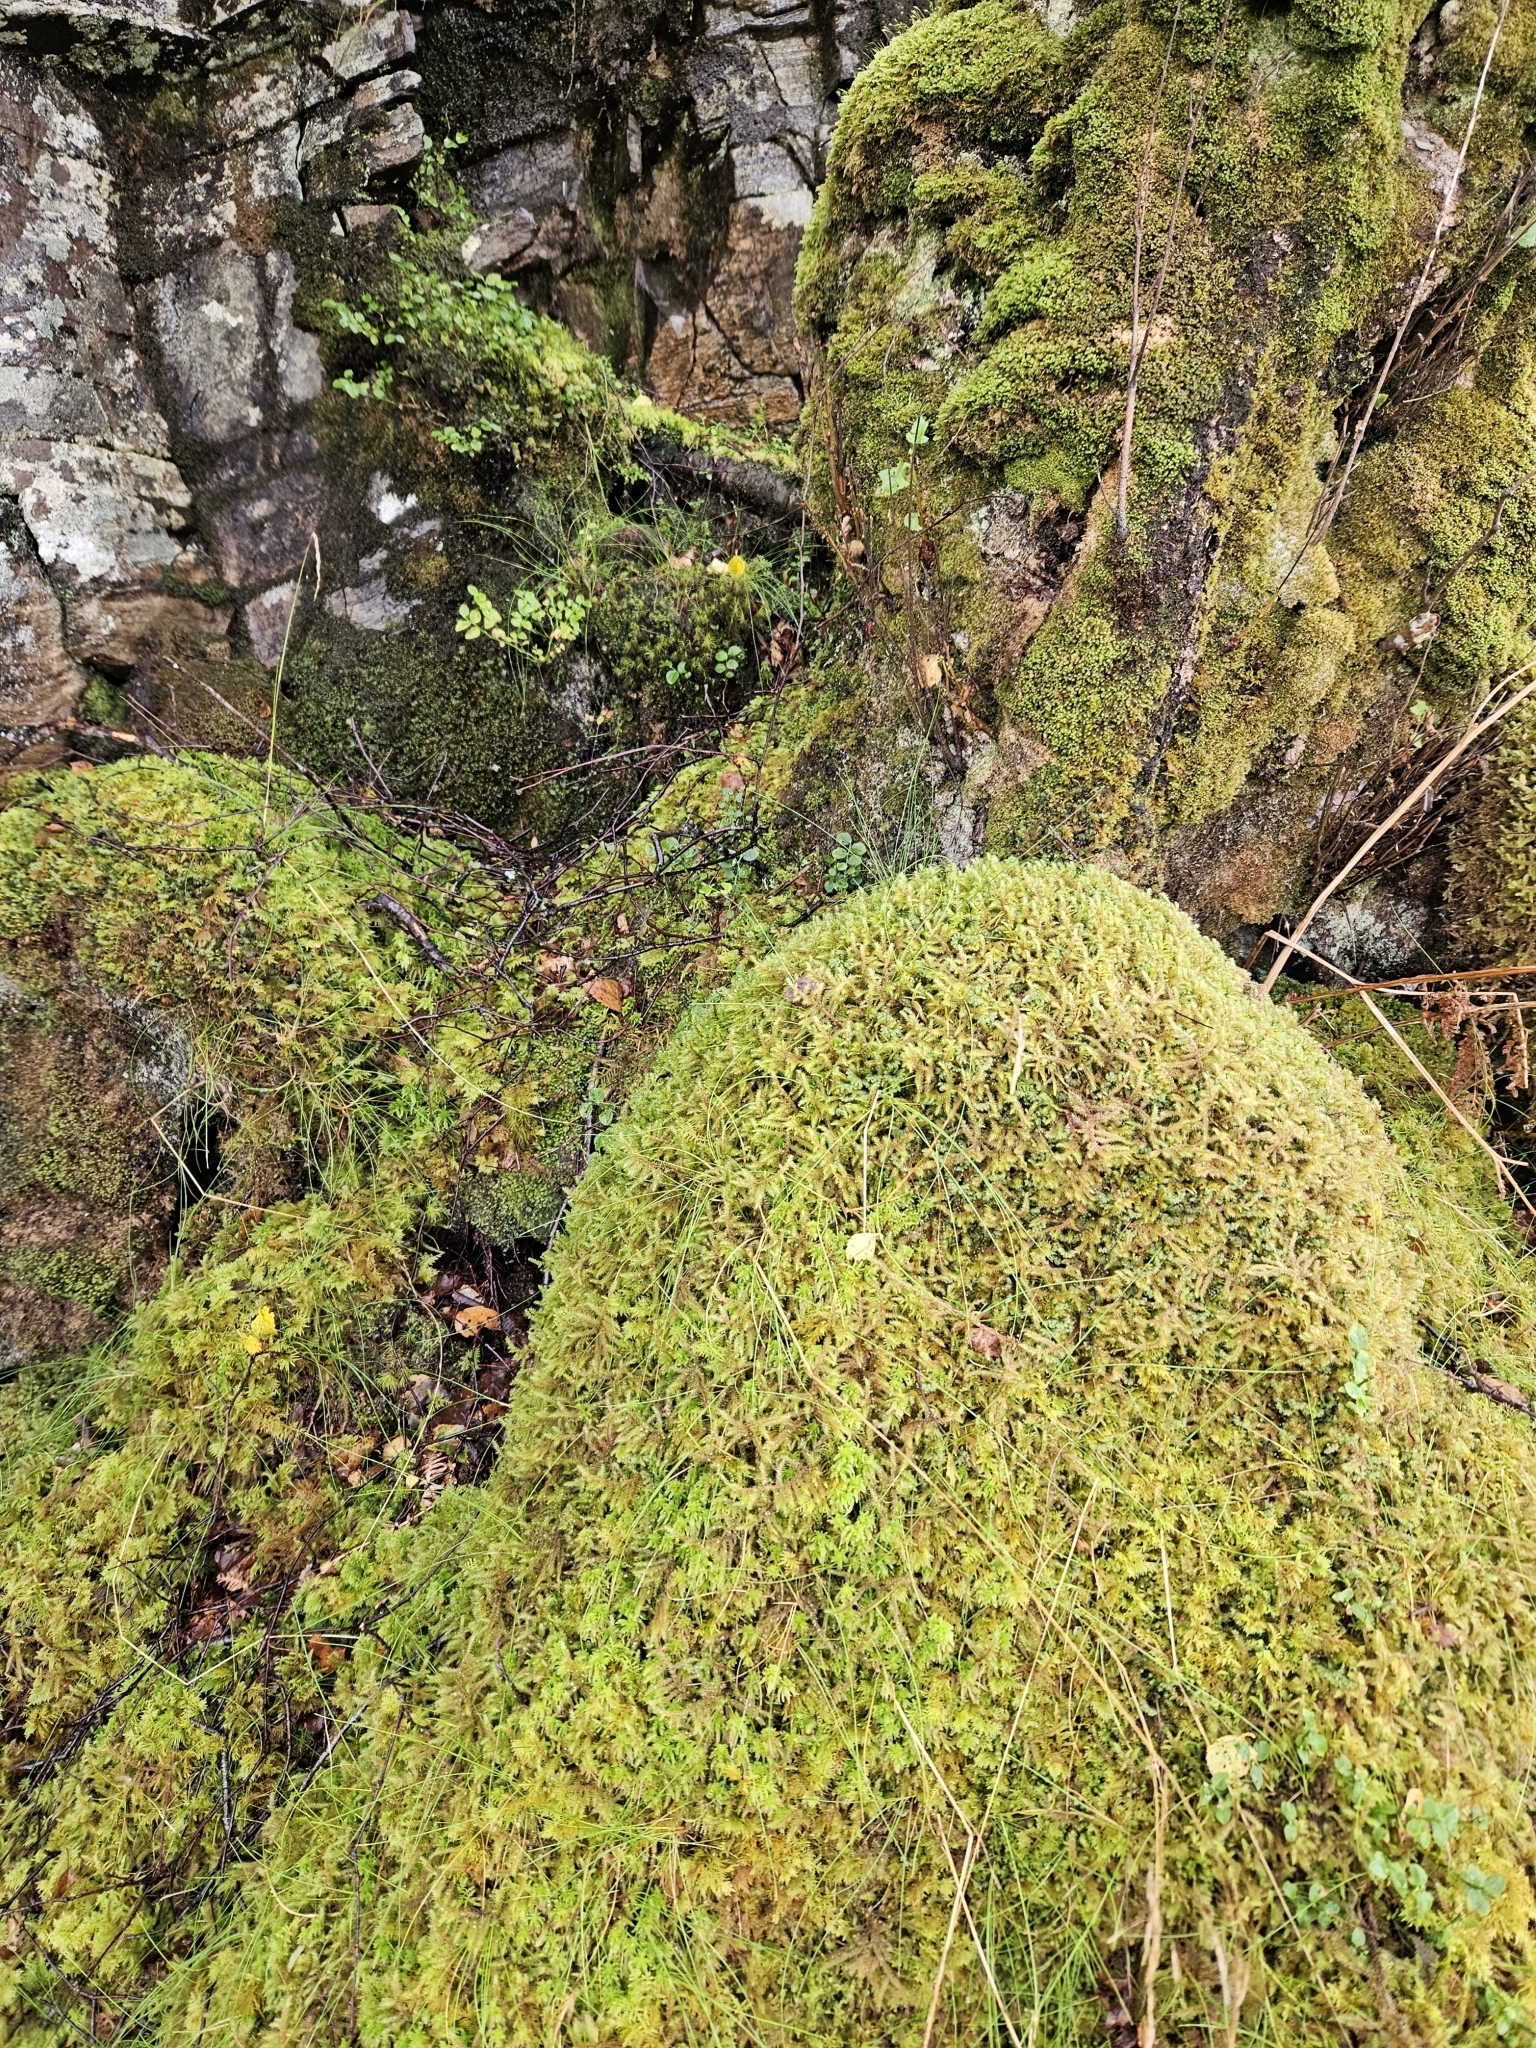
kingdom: Plantae
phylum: Tracheophyta
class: Polypodiopsida
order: Hymenophyllales
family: Hymenophyllaceae
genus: Hymenophyllum
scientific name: Hymenophyllum wilsonii
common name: Wilson's filmy fern
